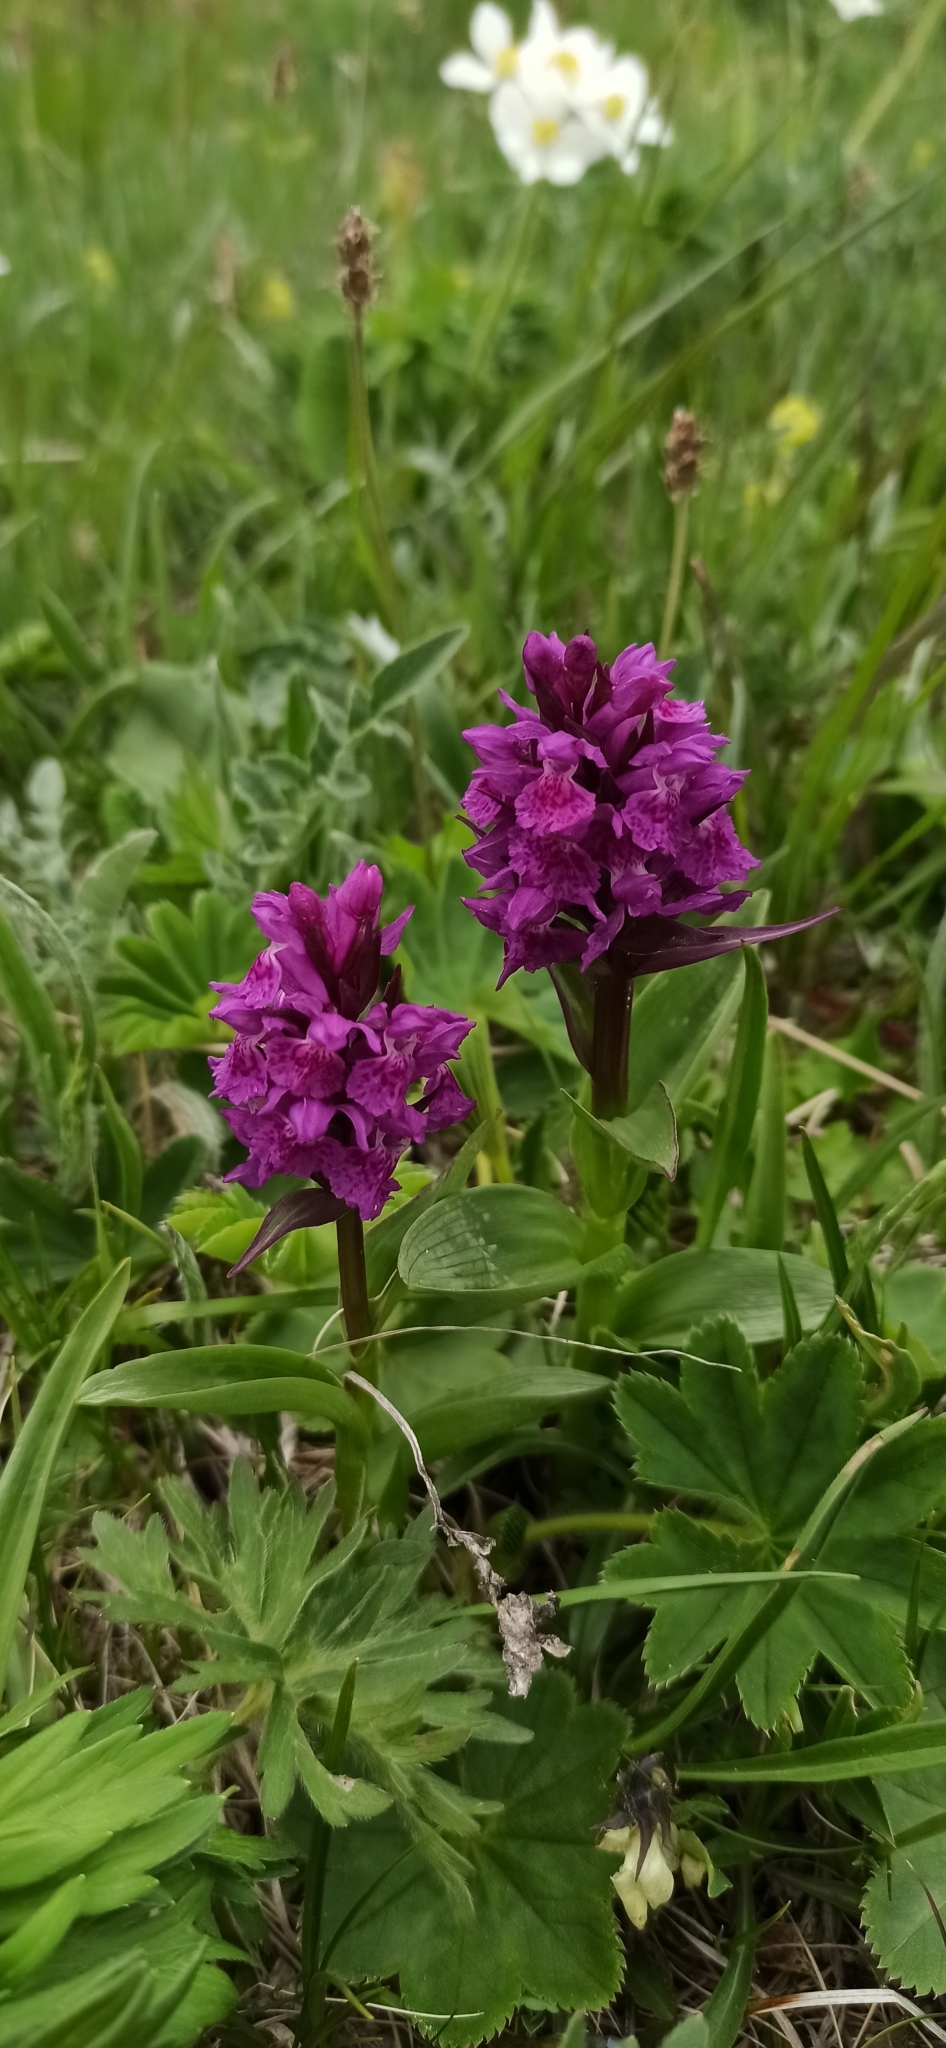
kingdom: Plantae
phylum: Tracheophyta
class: Liliopsida
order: Asparagales
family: Orchidaceae
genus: Dactylorhiza
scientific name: Dactylorhiza euxina
